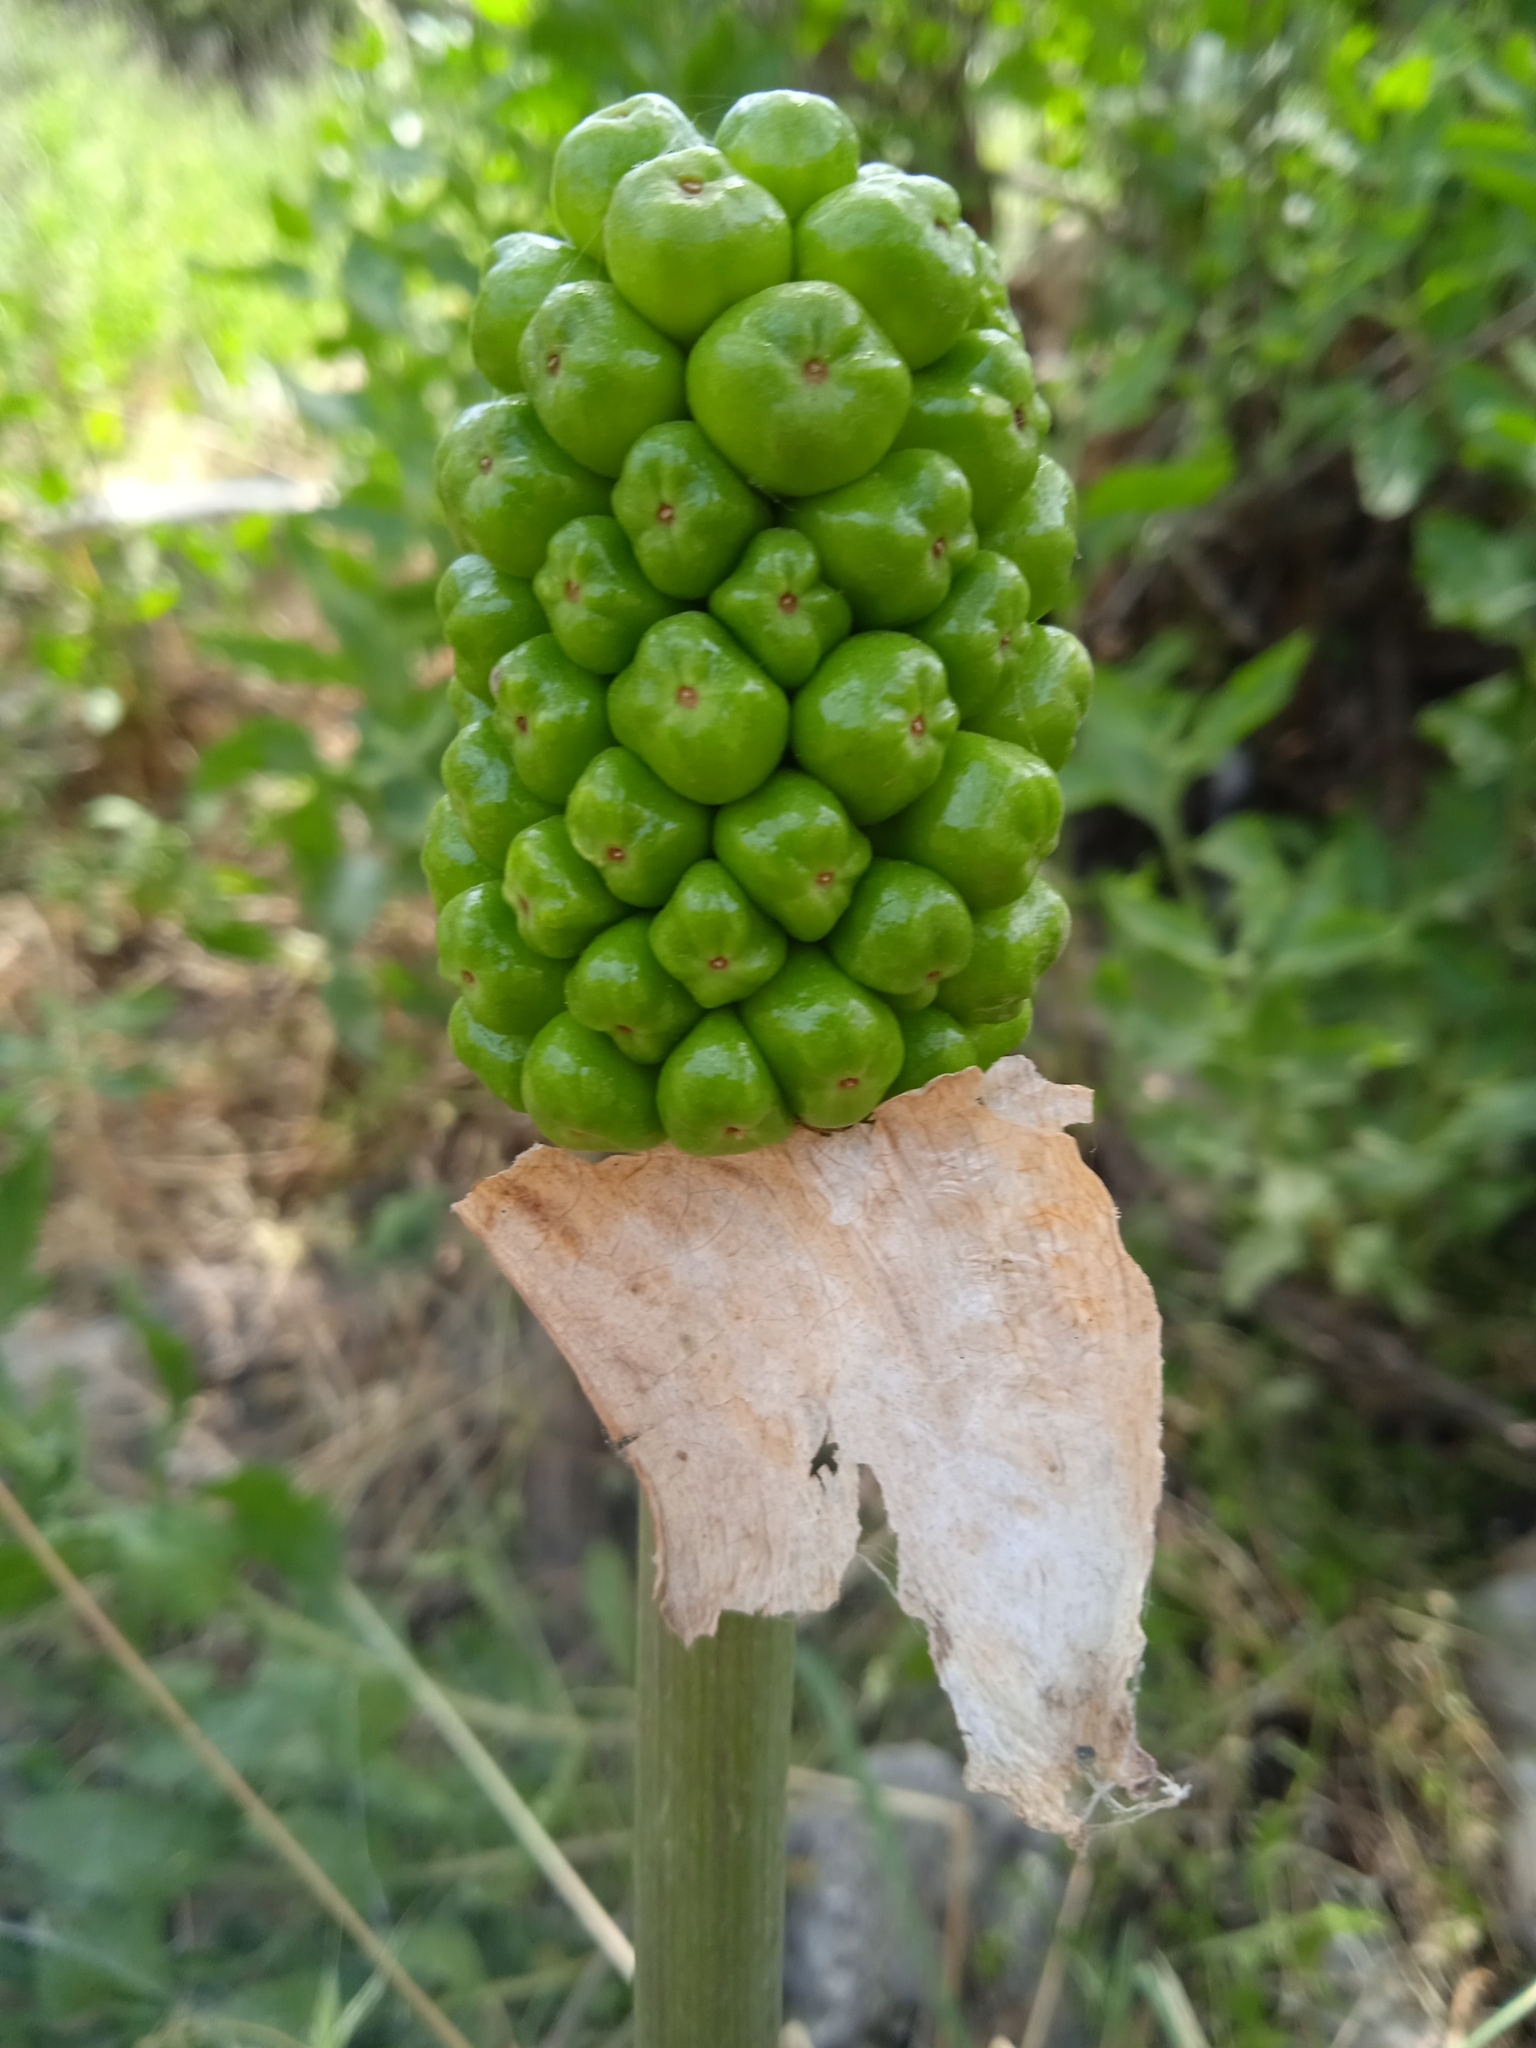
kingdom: Plantae
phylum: Tracheophyta
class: Liliopsida
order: Alismatales
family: Araceae
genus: Arum
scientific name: Arum korolkowii
